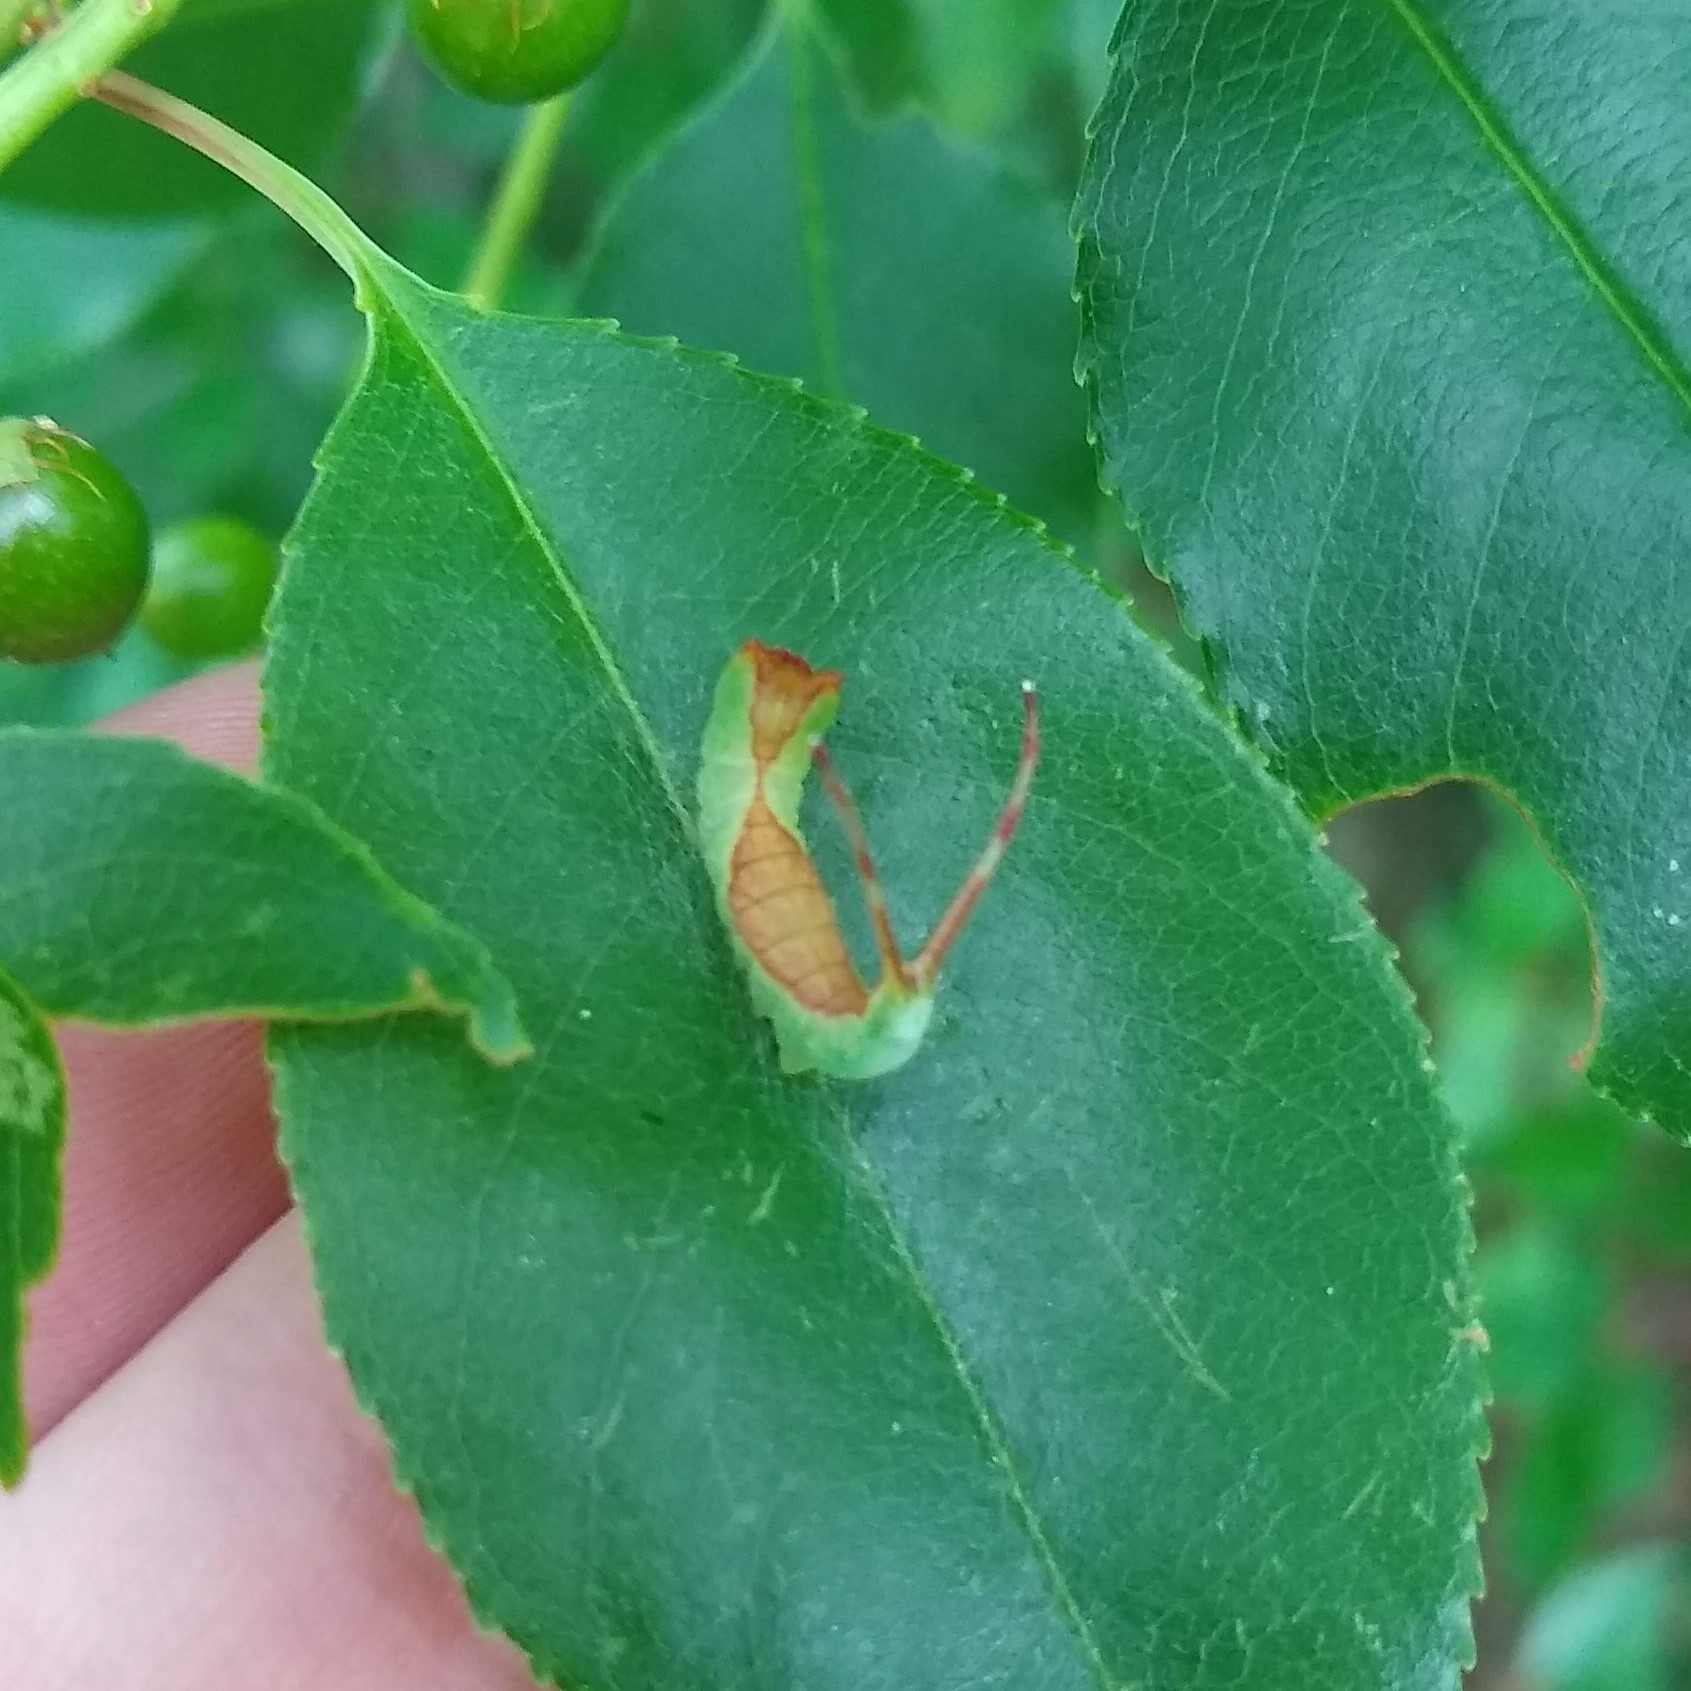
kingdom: Animalia
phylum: Arthropoda
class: Insecta
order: Lepidoptera
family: Notodontidae
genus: Furcula
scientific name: Furcula borealis
